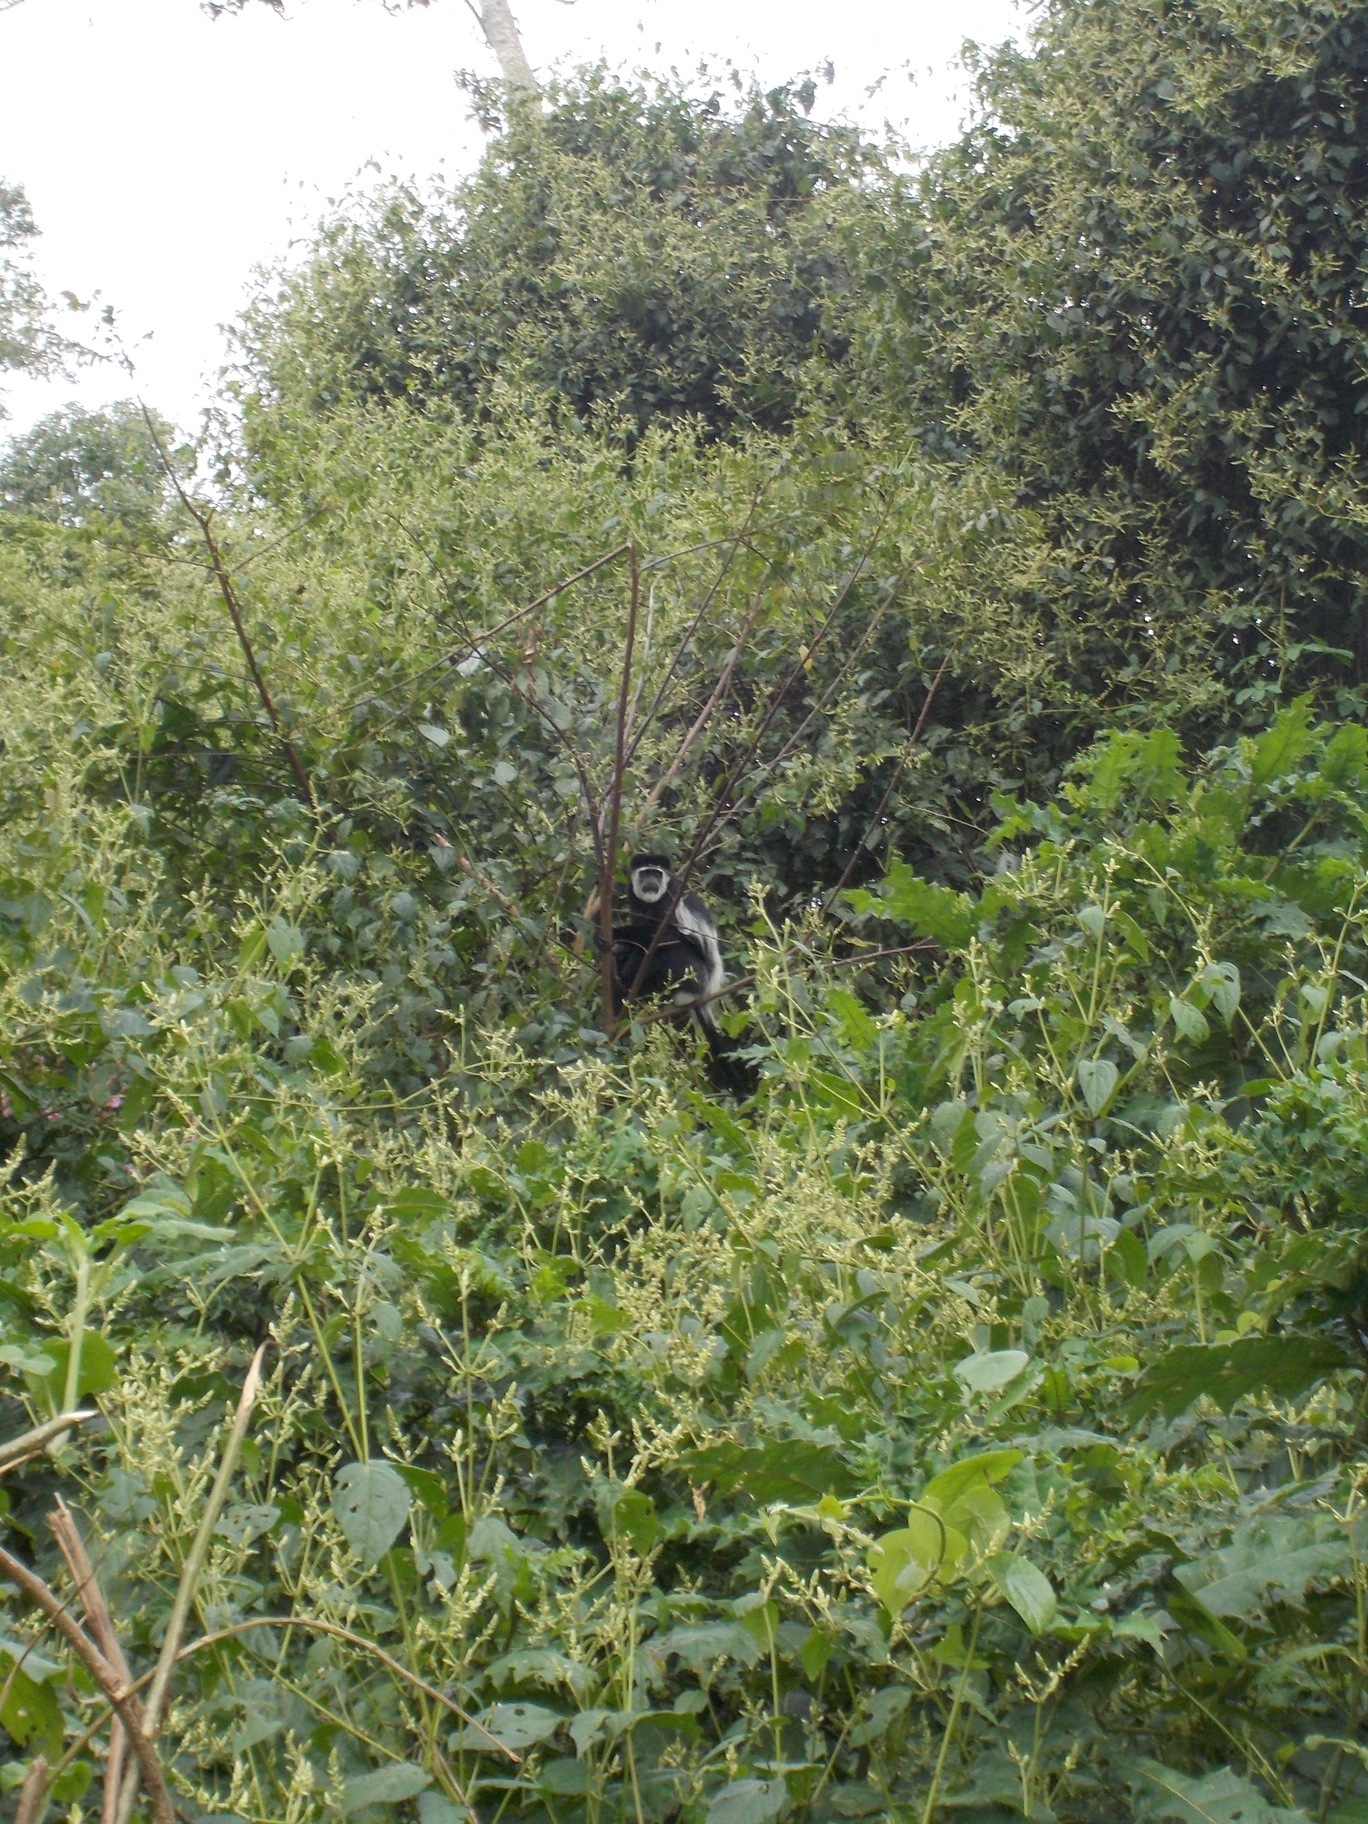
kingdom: Animalia
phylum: Chordata
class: Mammalia
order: Primates
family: Cercopithecidae
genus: Colobus
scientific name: Colobus guereza
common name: Mantled guereza
